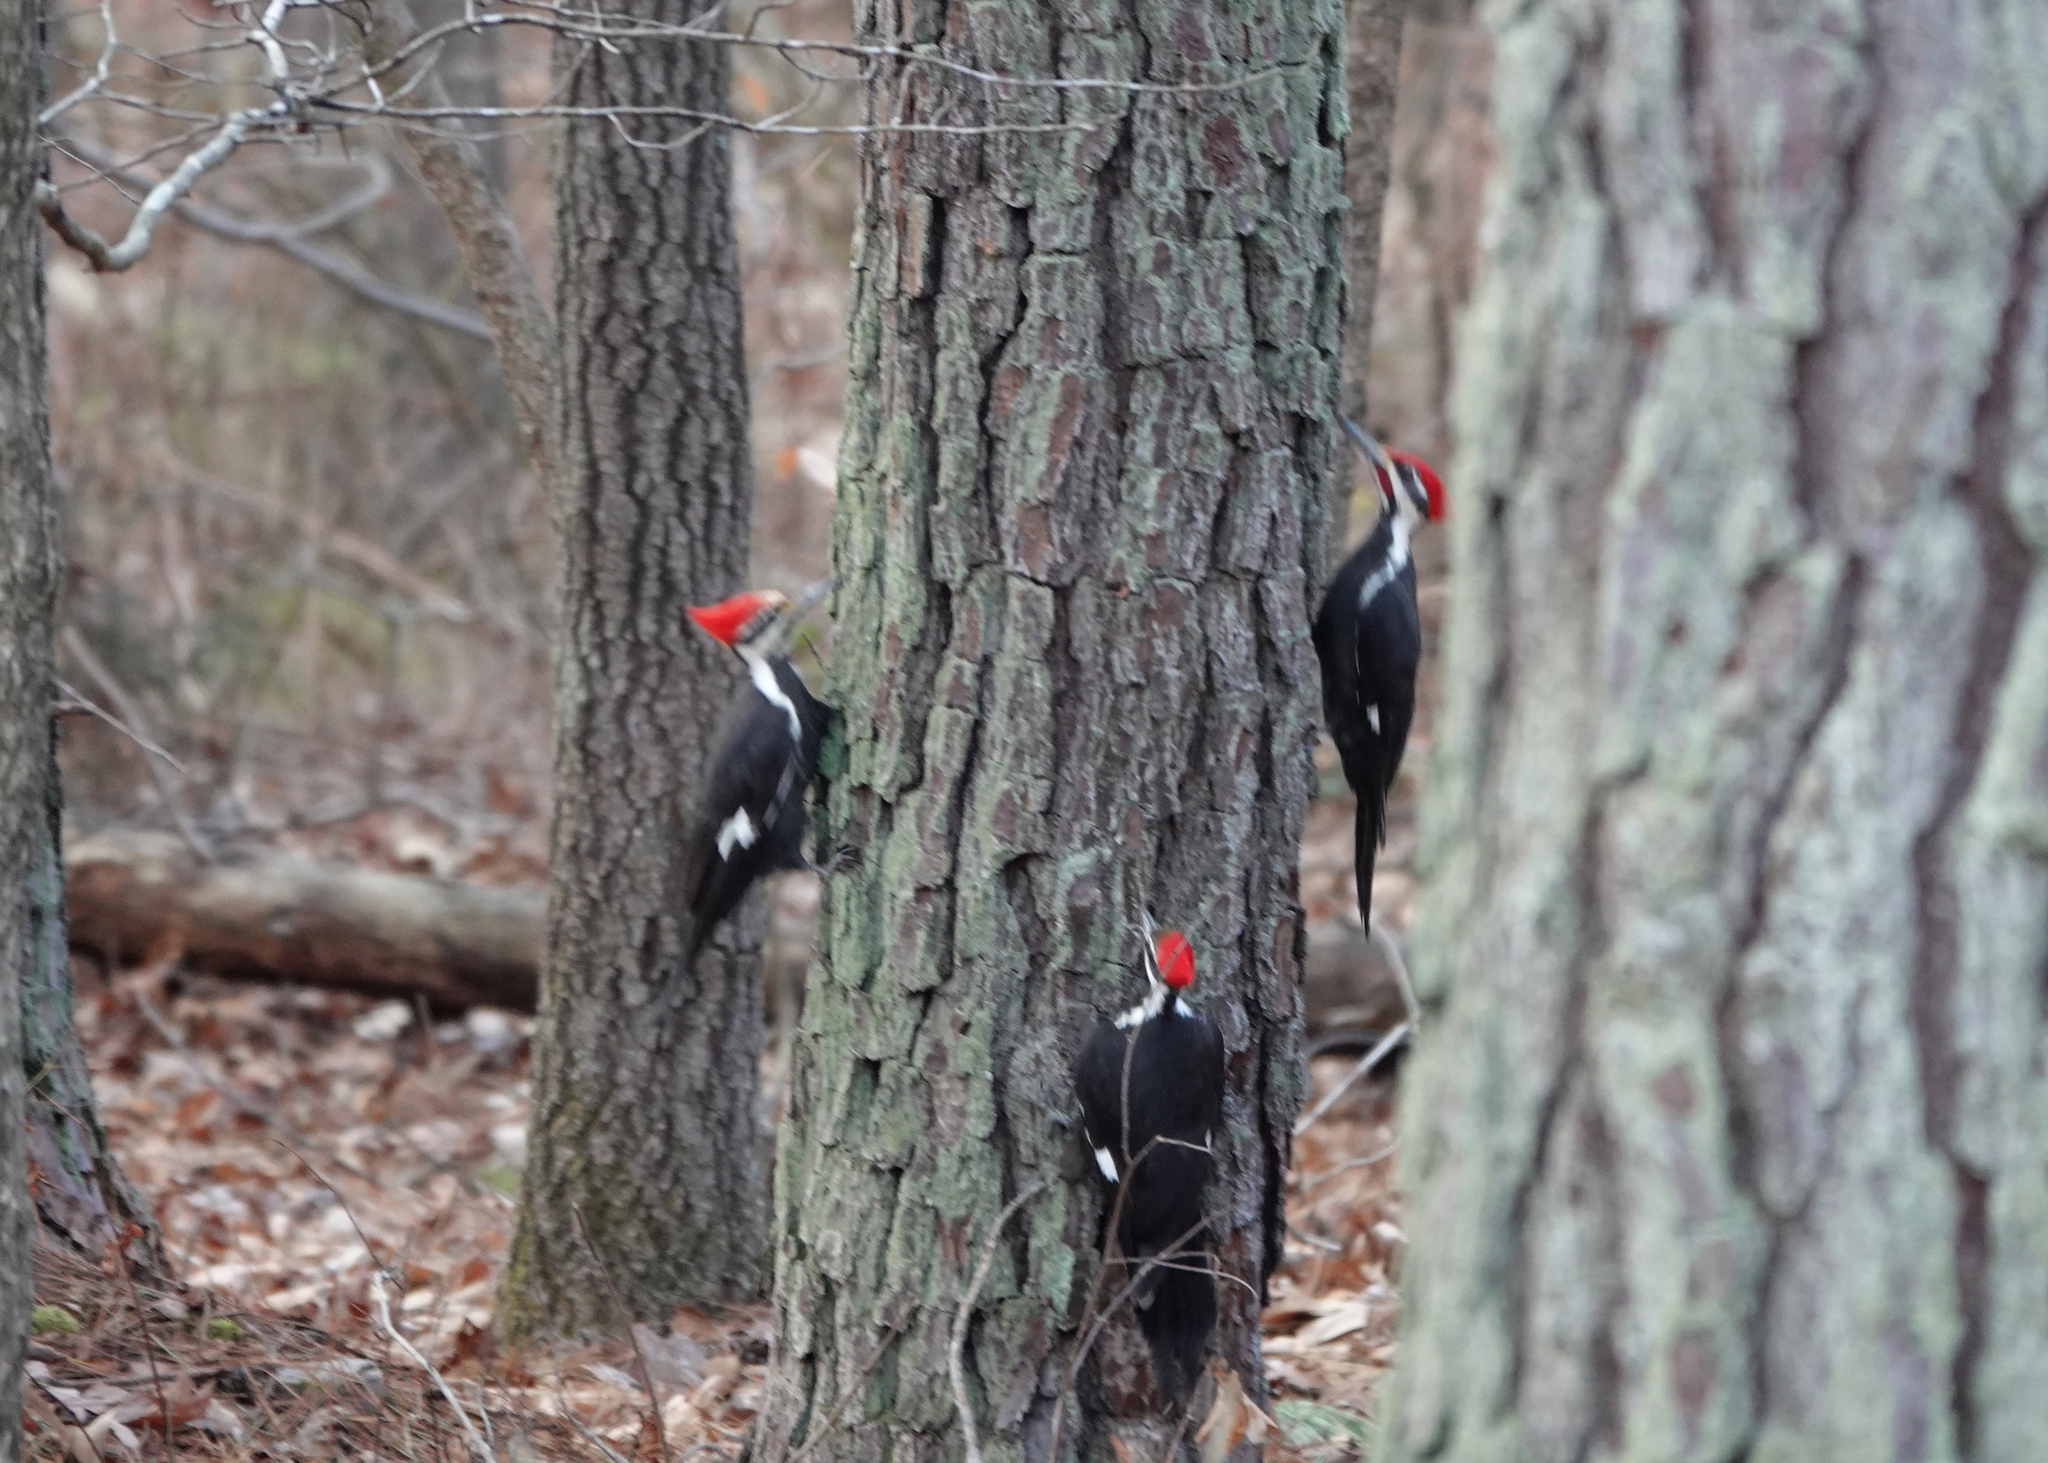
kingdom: Animalia
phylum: Chordata
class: Aves
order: Piciformes
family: Picidae
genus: Dryocopus
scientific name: Dryocopus pileatus
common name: Pileated woodpecker
